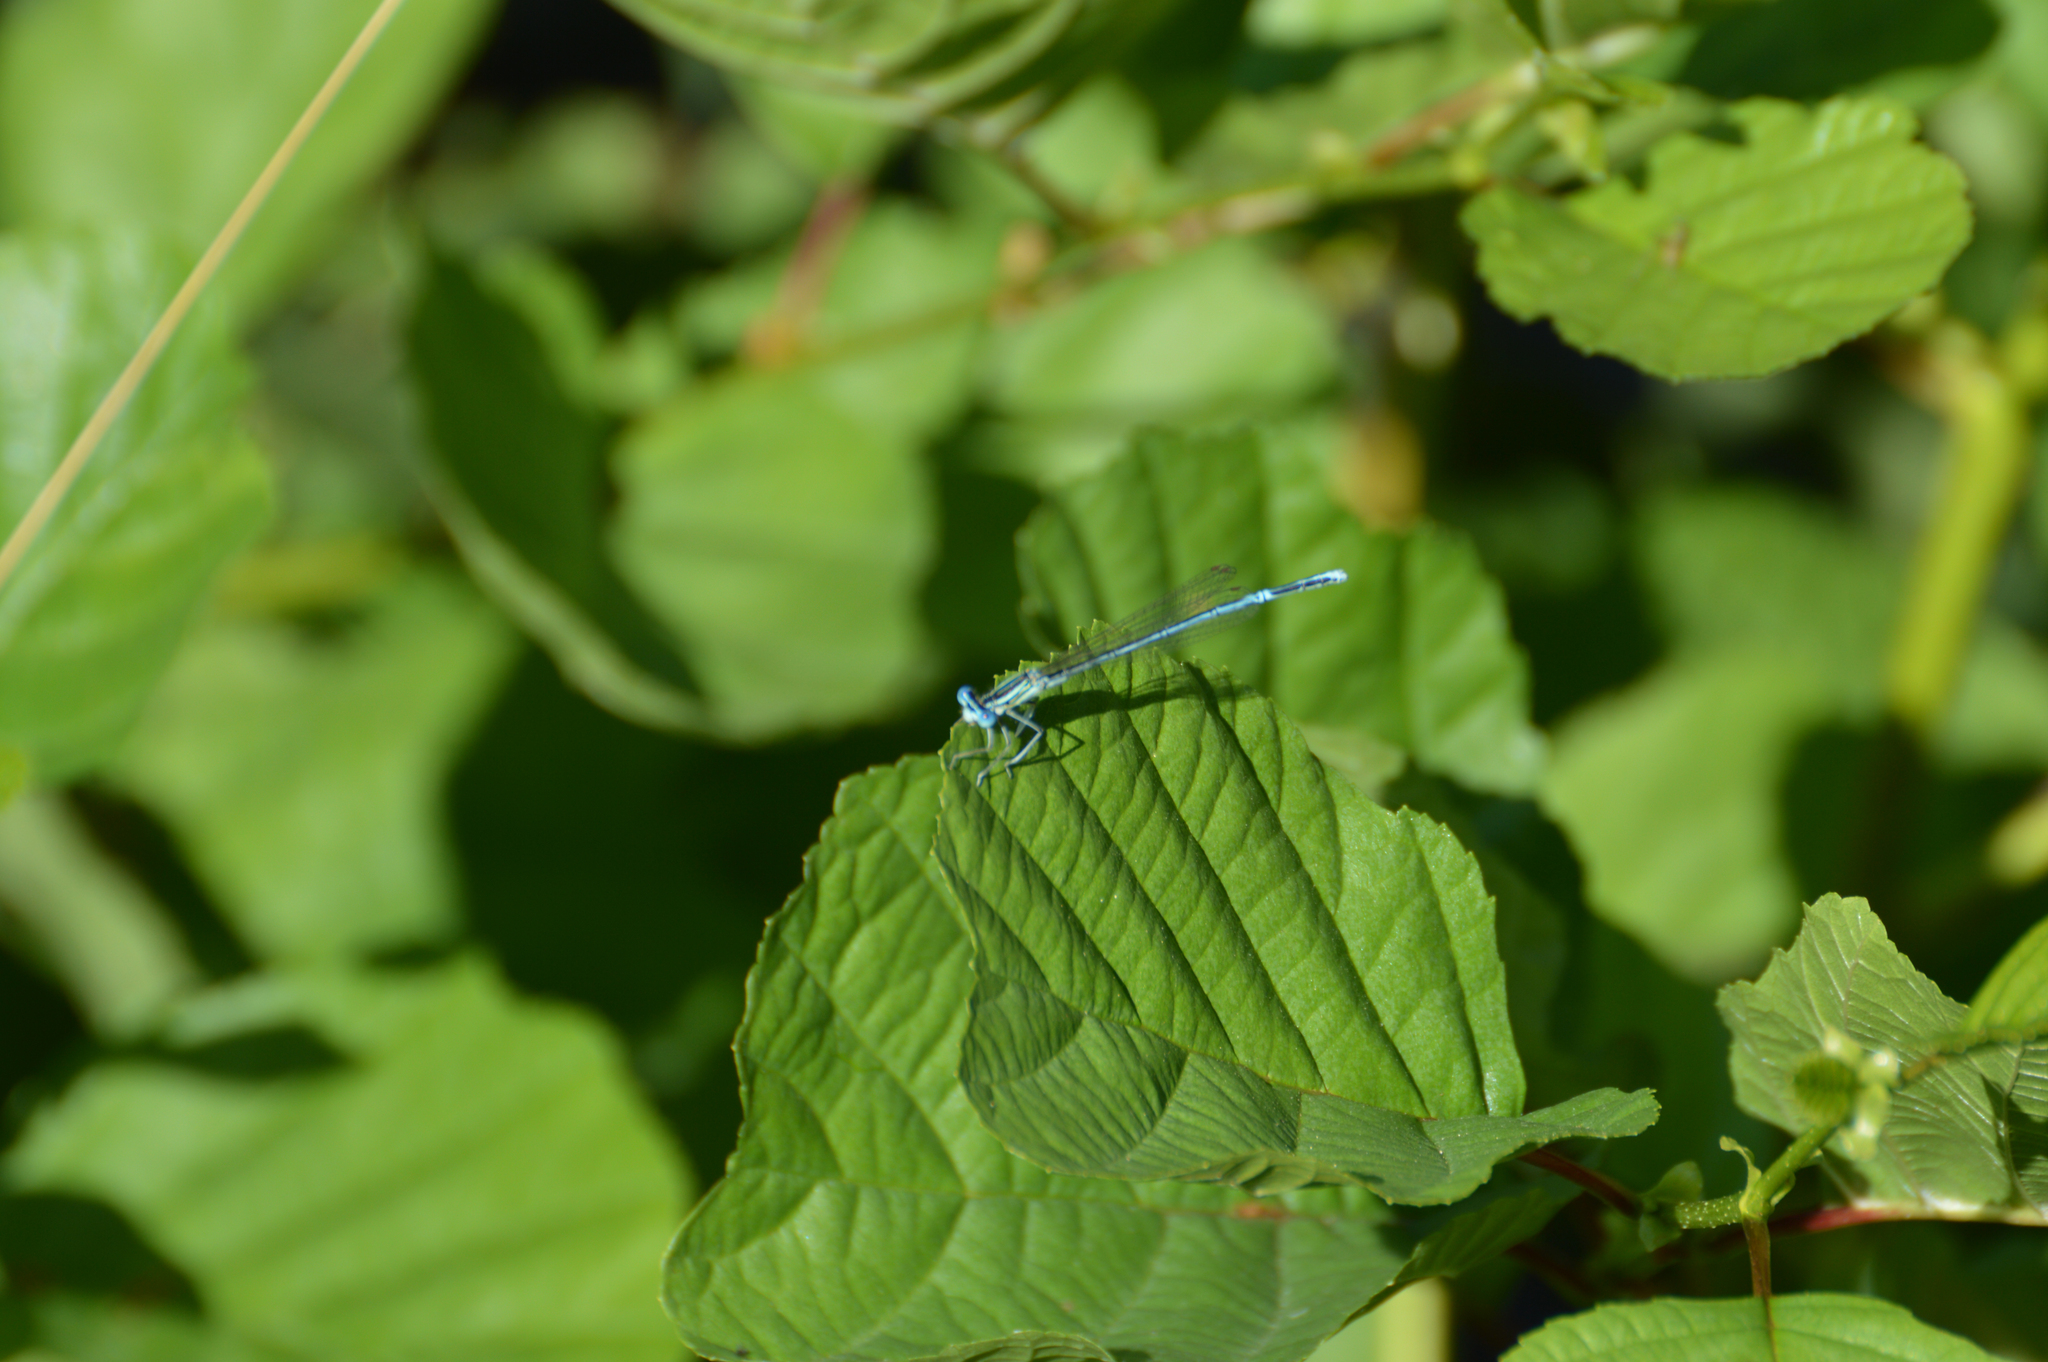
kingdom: Animalia
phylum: Arthropoda
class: Insecta
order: Odonata
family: Platycnemididae
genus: Platycnemis
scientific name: Platycnemis pennipes
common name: White-legged damselfly
